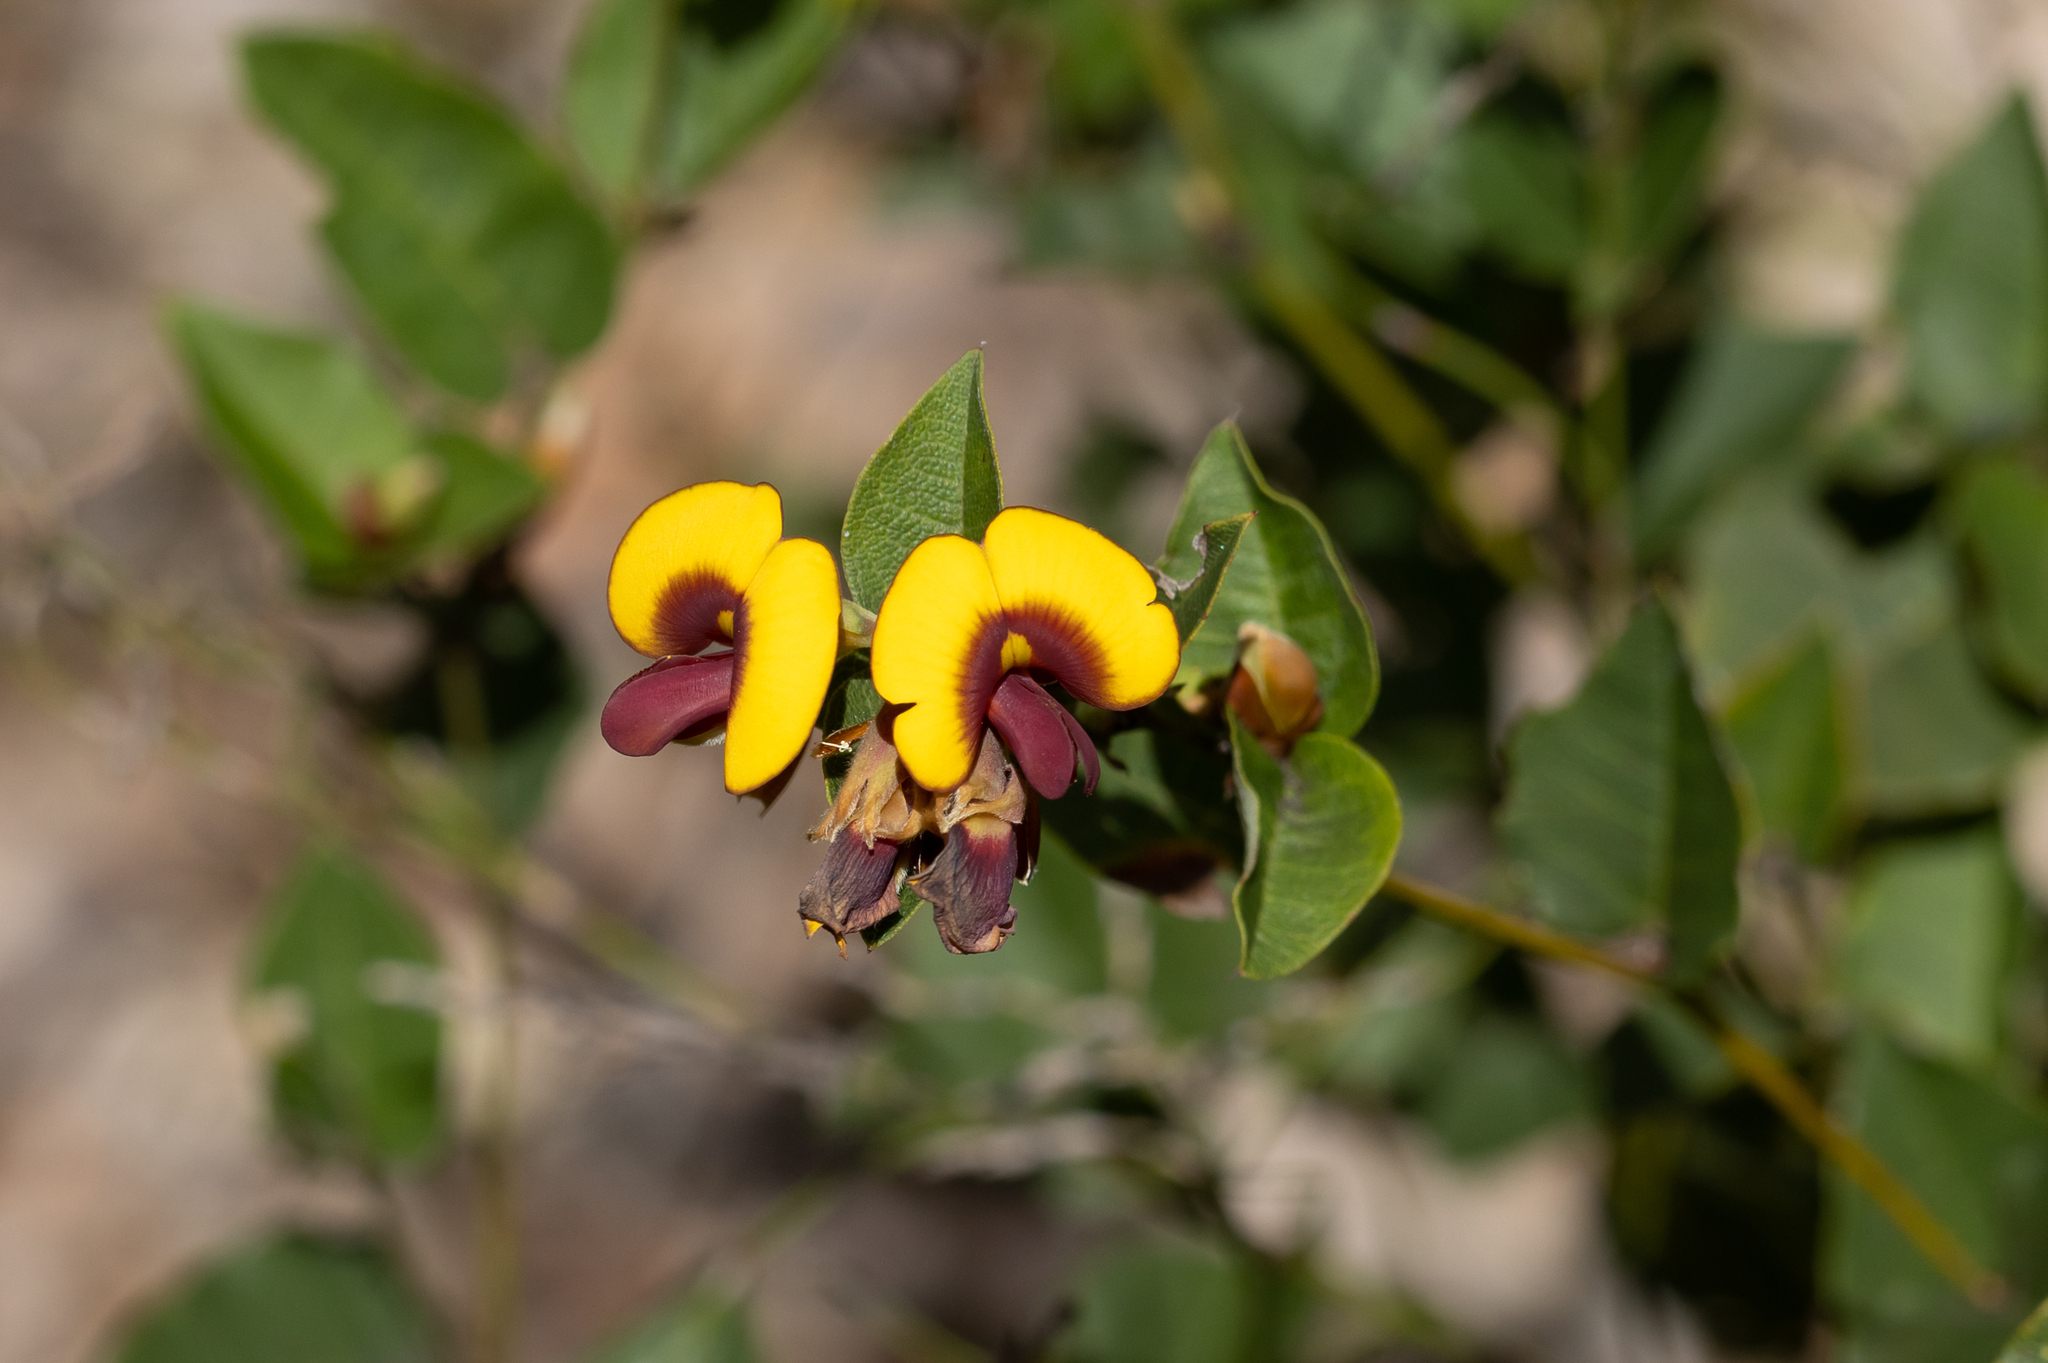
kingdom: Plantae
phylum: Tracheophyta
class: Magnoliopsida
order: Fabales
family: Fabaceae
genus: Bossiaea
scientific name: Bossiaea ornata
